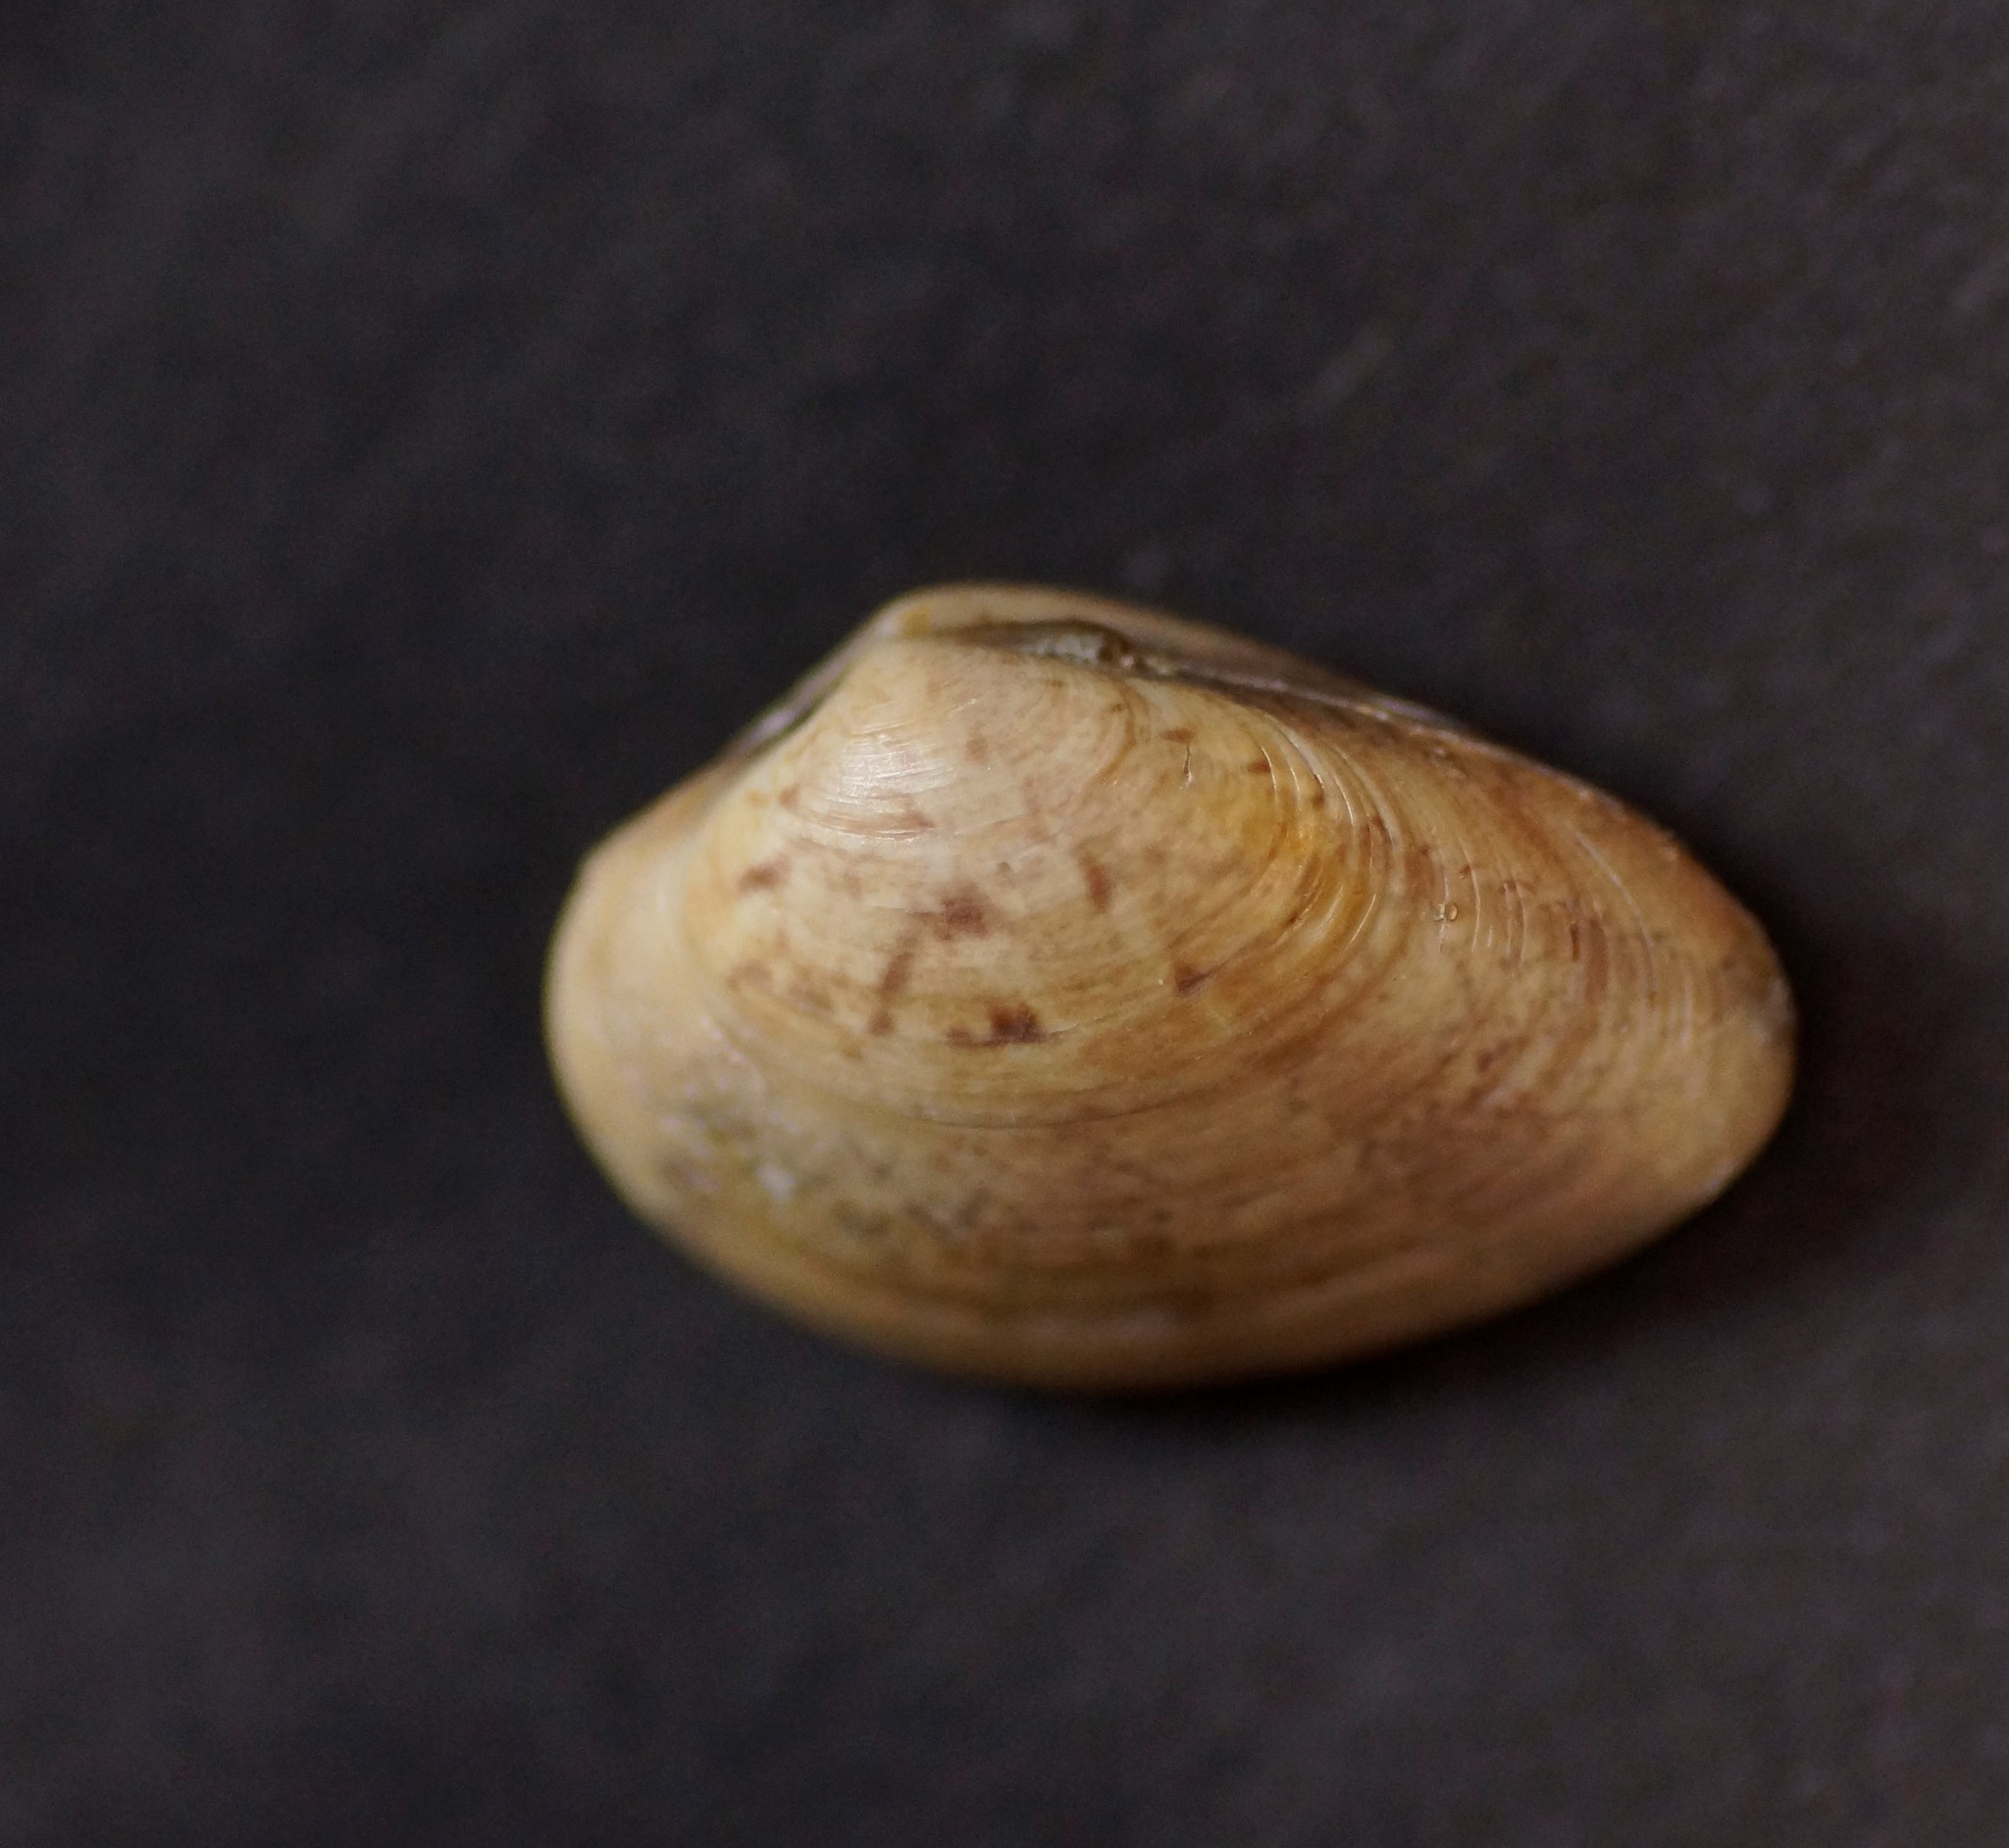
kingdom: Animalia
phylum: Mollusca
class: Bivalvia
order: Venerida
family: Veneridae
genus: Eumarcia
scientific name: Eumarcia fumigata
